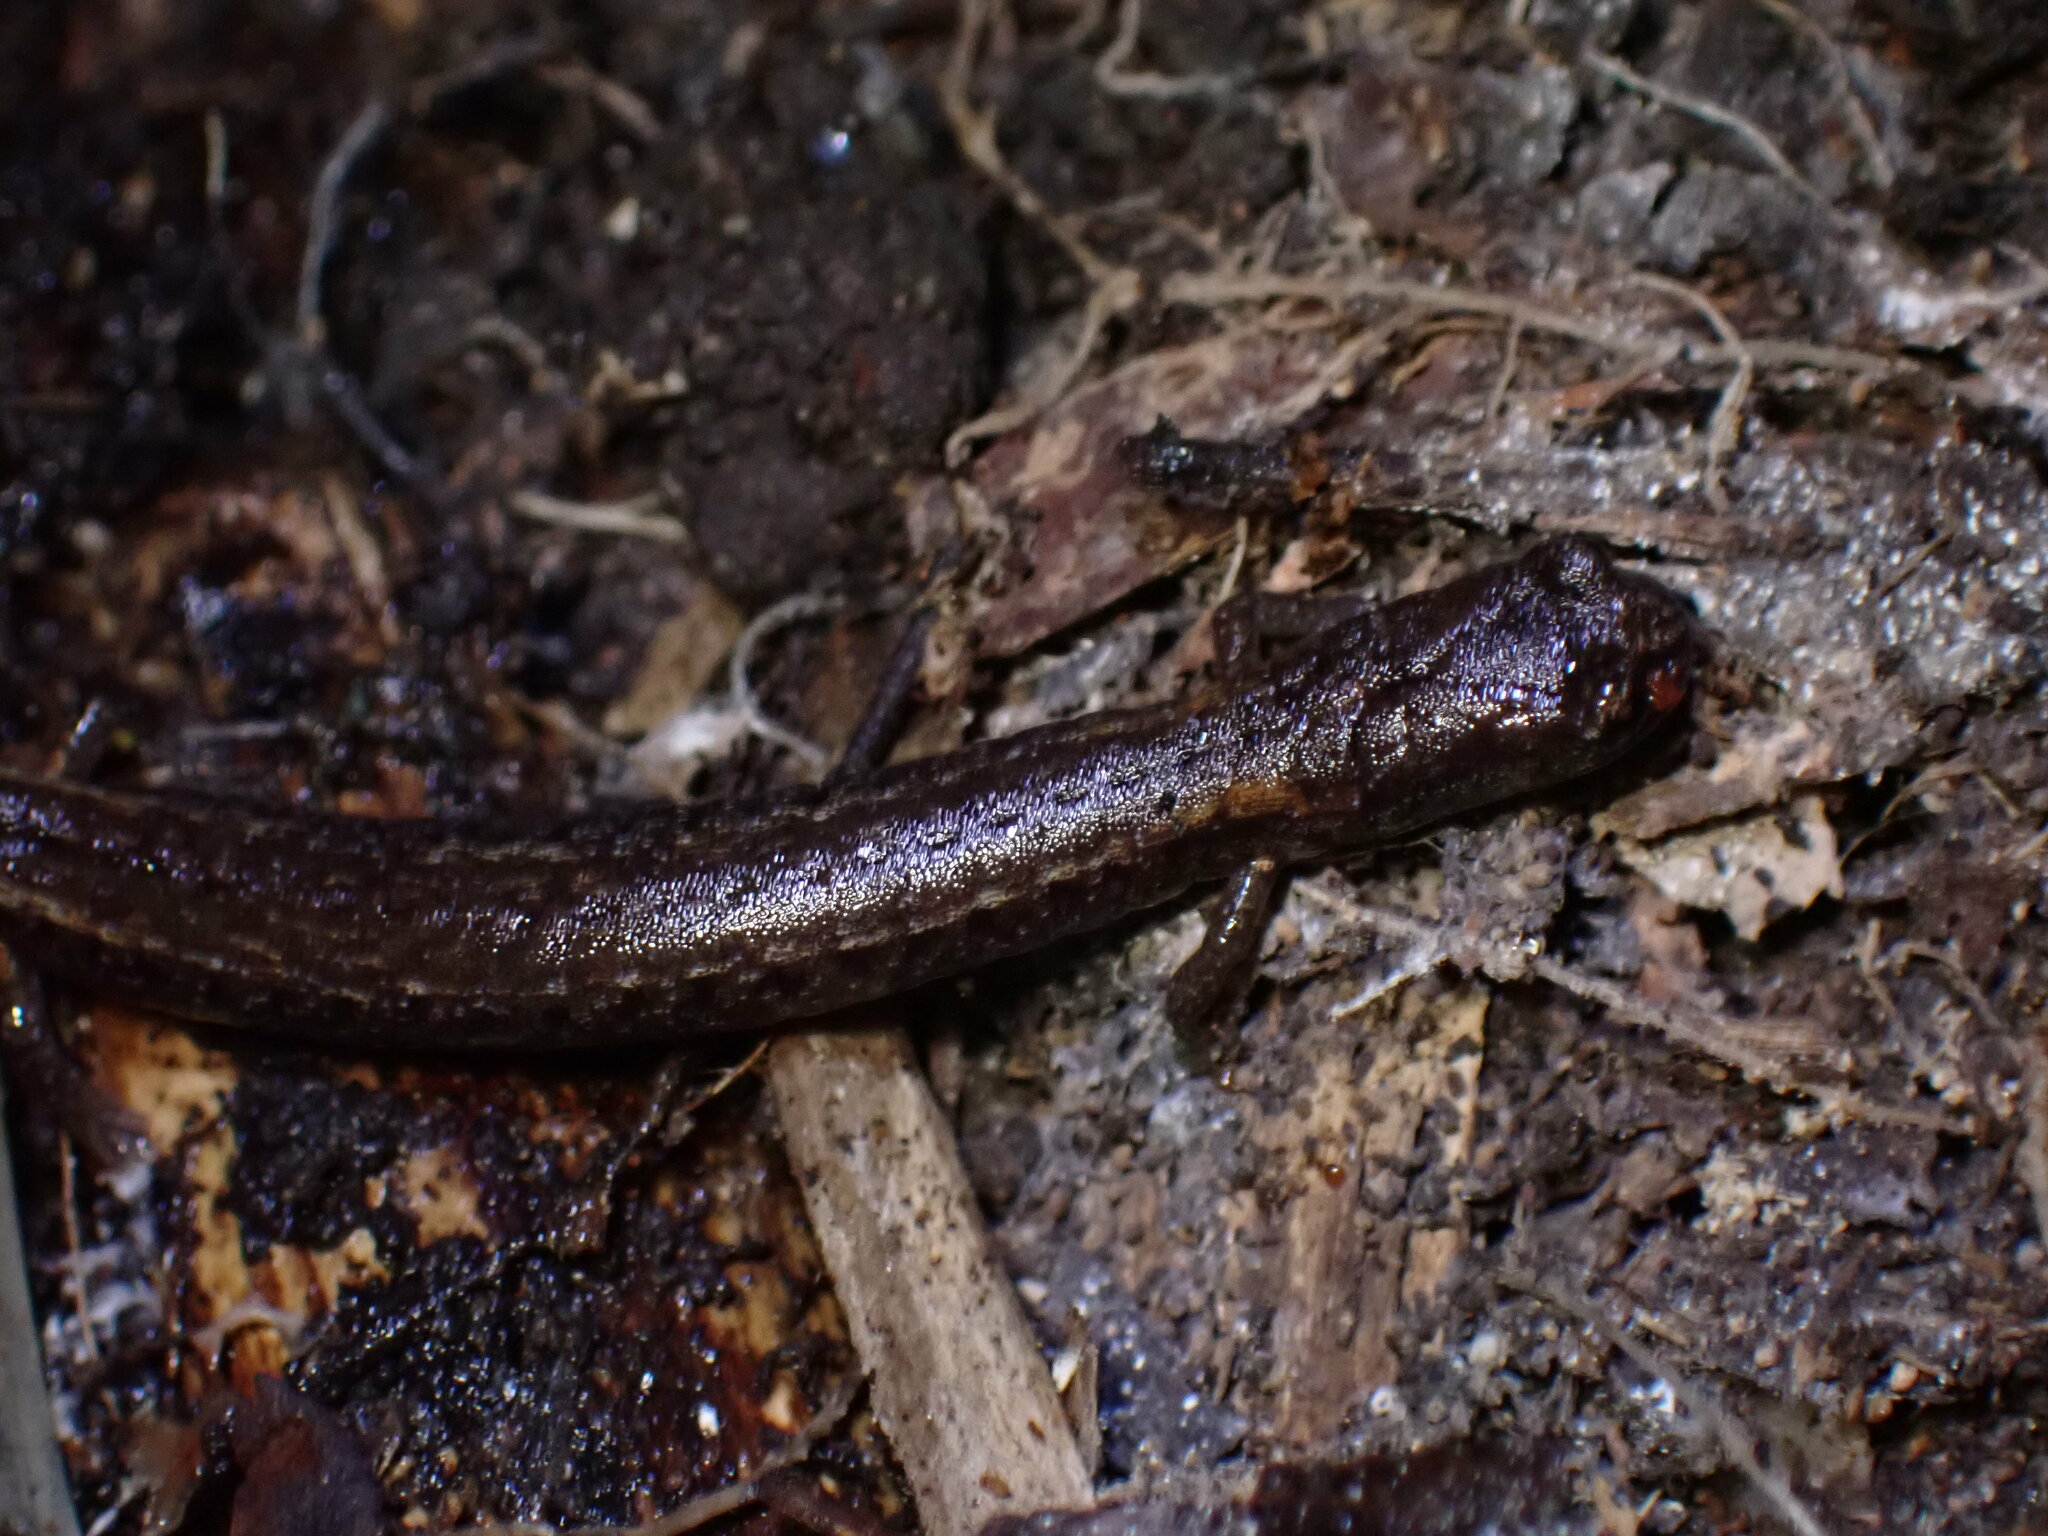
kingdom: Animalia
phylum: Chordata
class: Amphibia
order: Caudata
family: Plethodontidae
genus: Batrachoseps
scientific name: Batrachoseps attenuatus
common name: California slender salamander
